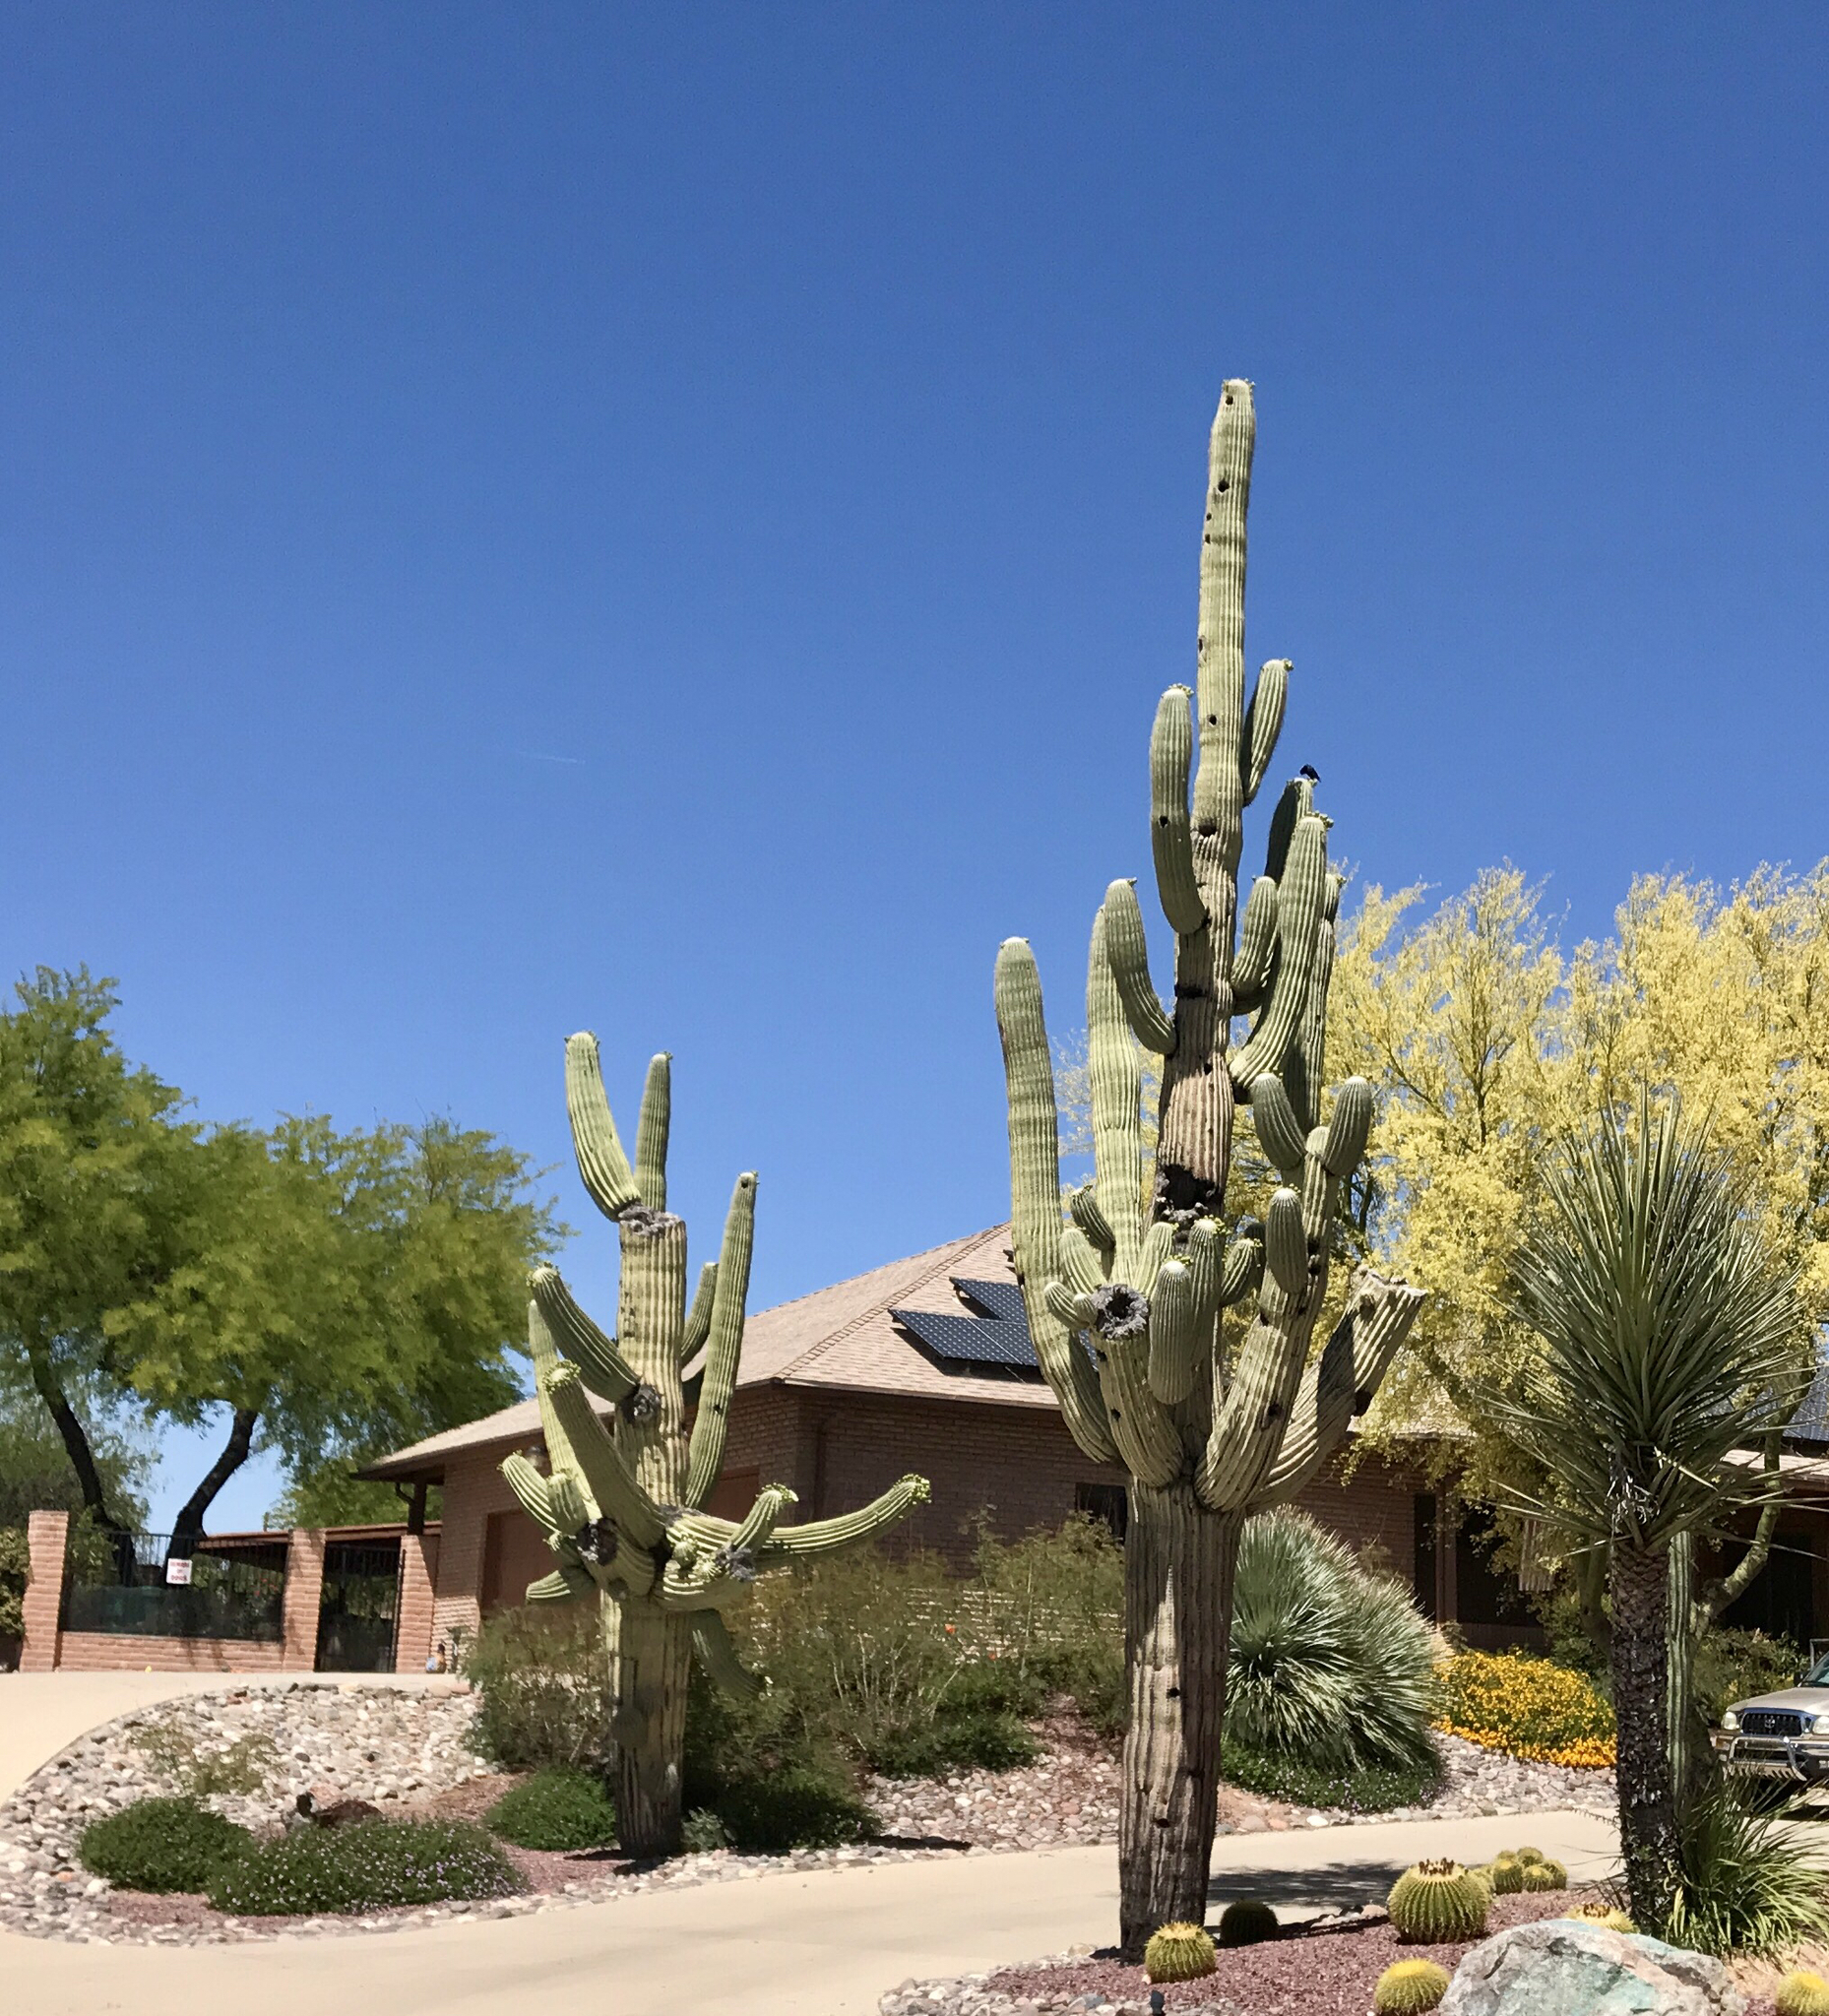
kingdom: Plantae
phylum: Tracheophyta
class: Magnoliopsida
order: Caryophyllales
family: Cactaceae
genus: Carnegiea
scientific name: Carnegiea gigantea
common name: Saguaro
